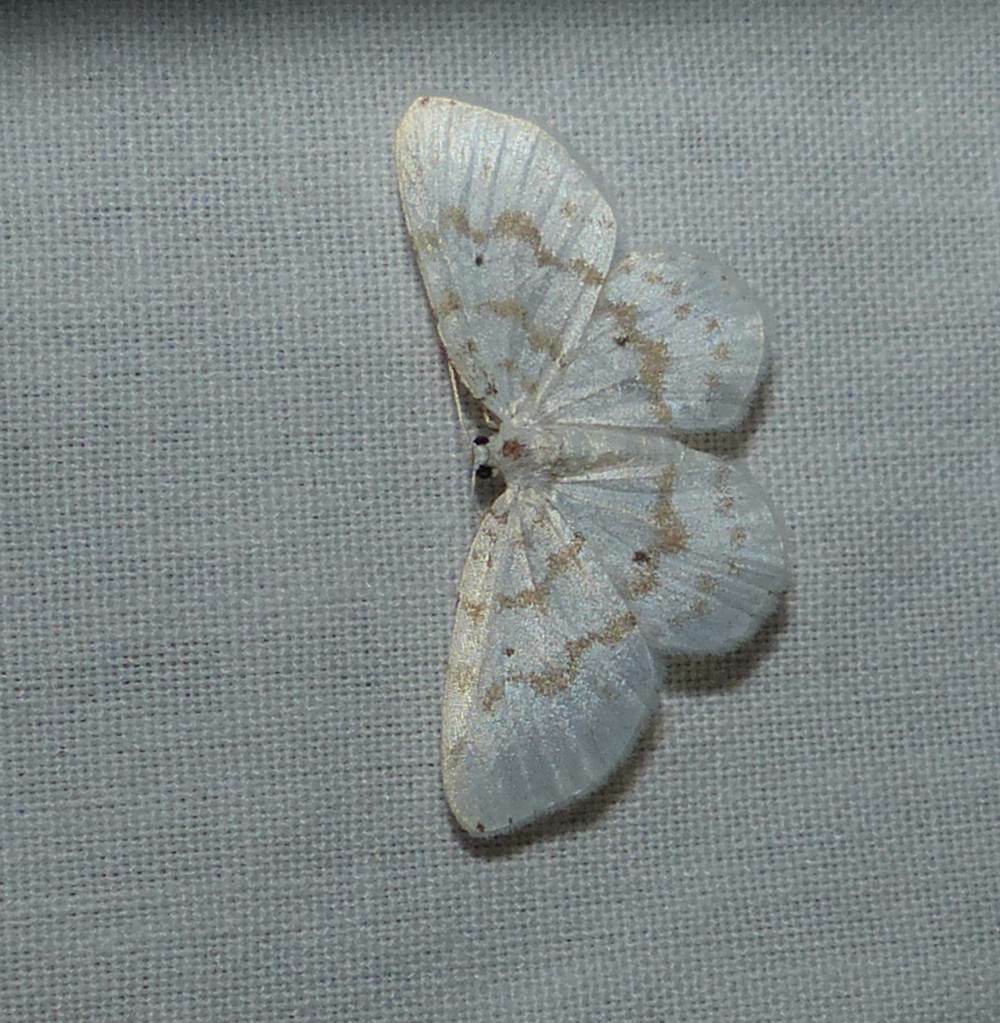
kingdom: Animalia
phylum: Arthropoda
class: Insecta
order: Lepidoptera
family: Geometridae
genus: Hydrelia
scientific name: Hydrelia albifera
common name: Fragile white carpet
